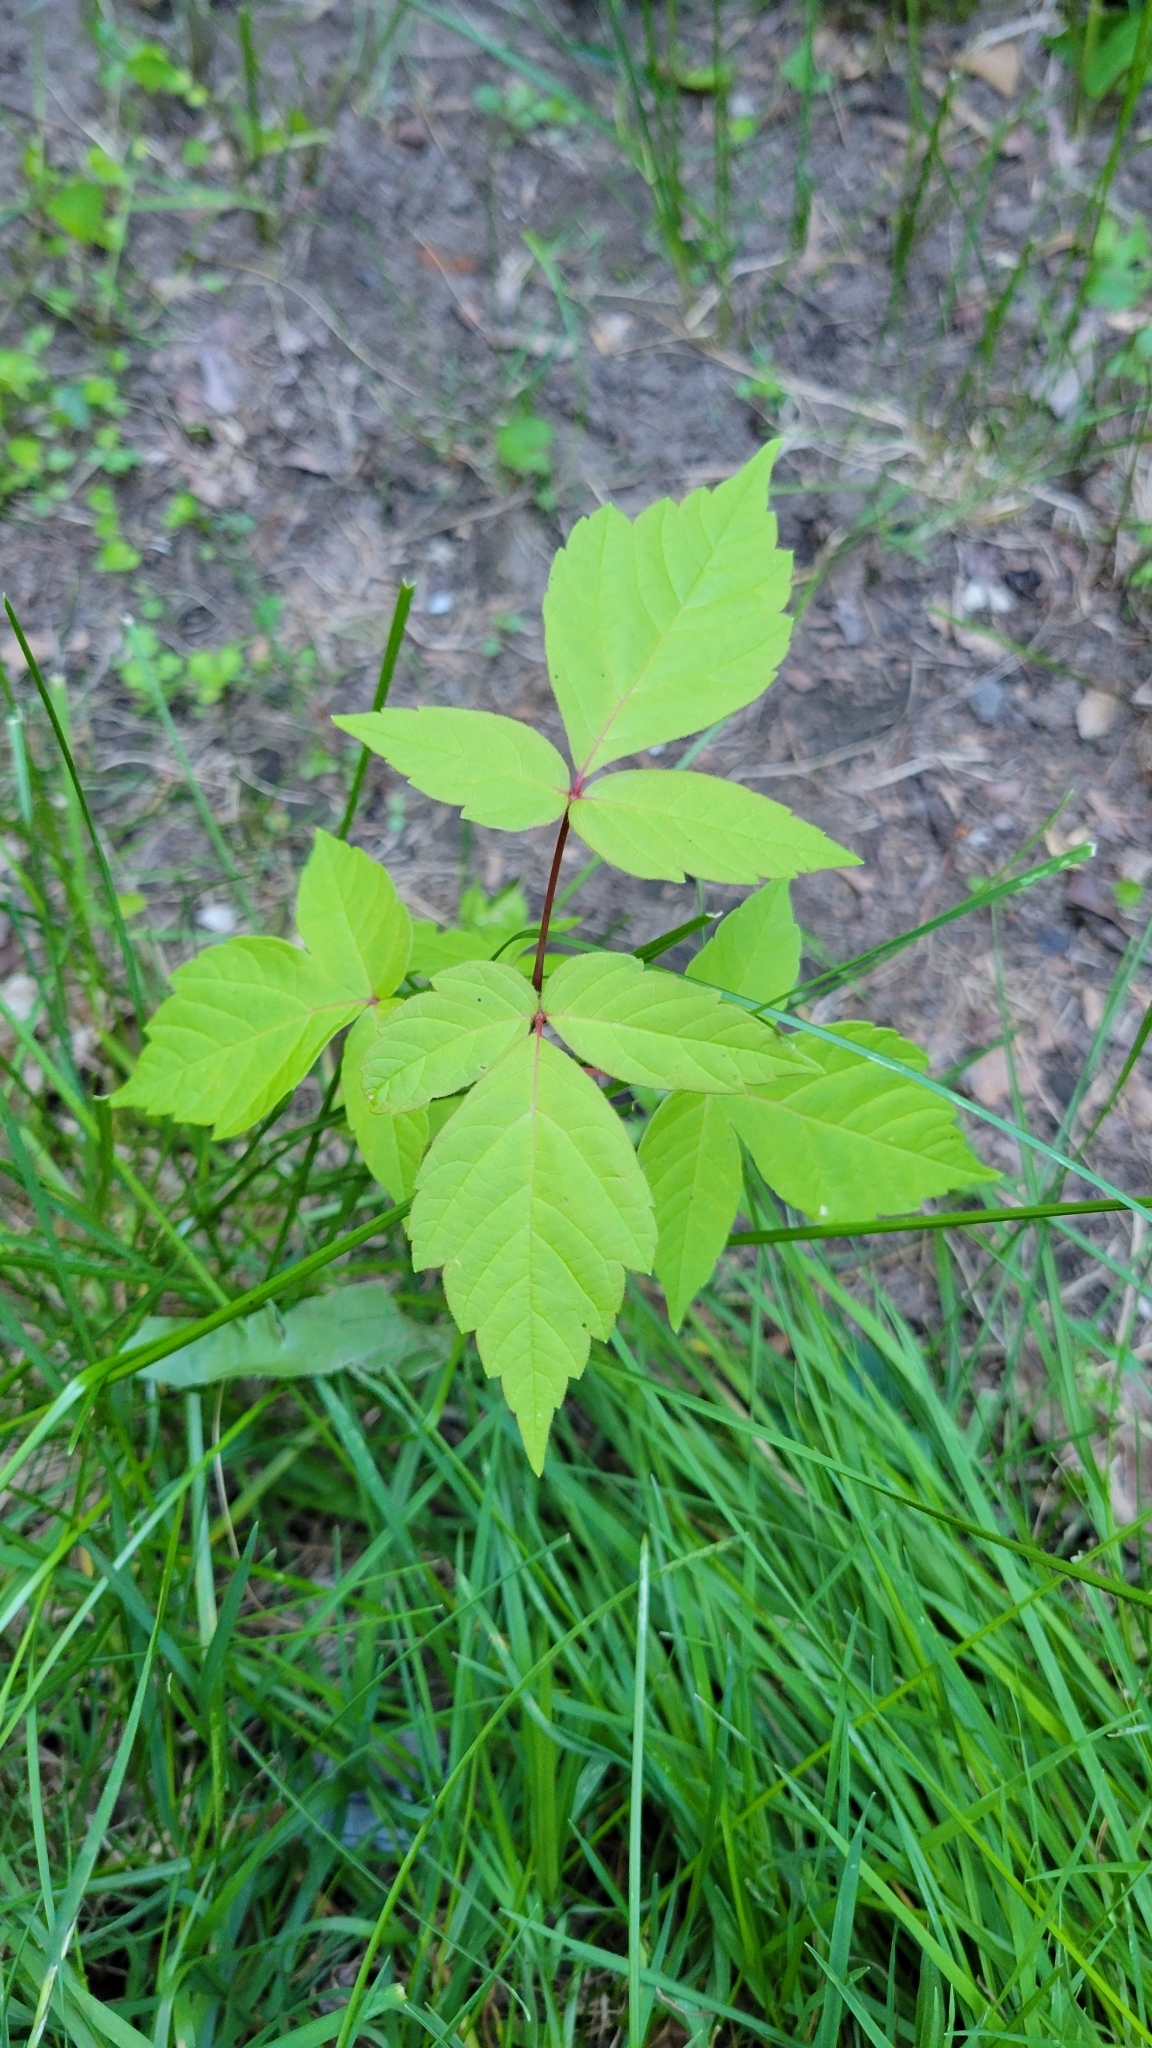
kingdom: Plantae
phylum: Tracheophyta
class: Magnoliopsida
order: Sapindales
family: Sapindaceae
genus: Acer
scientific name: Acer negundo
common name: Ashleaf maple
